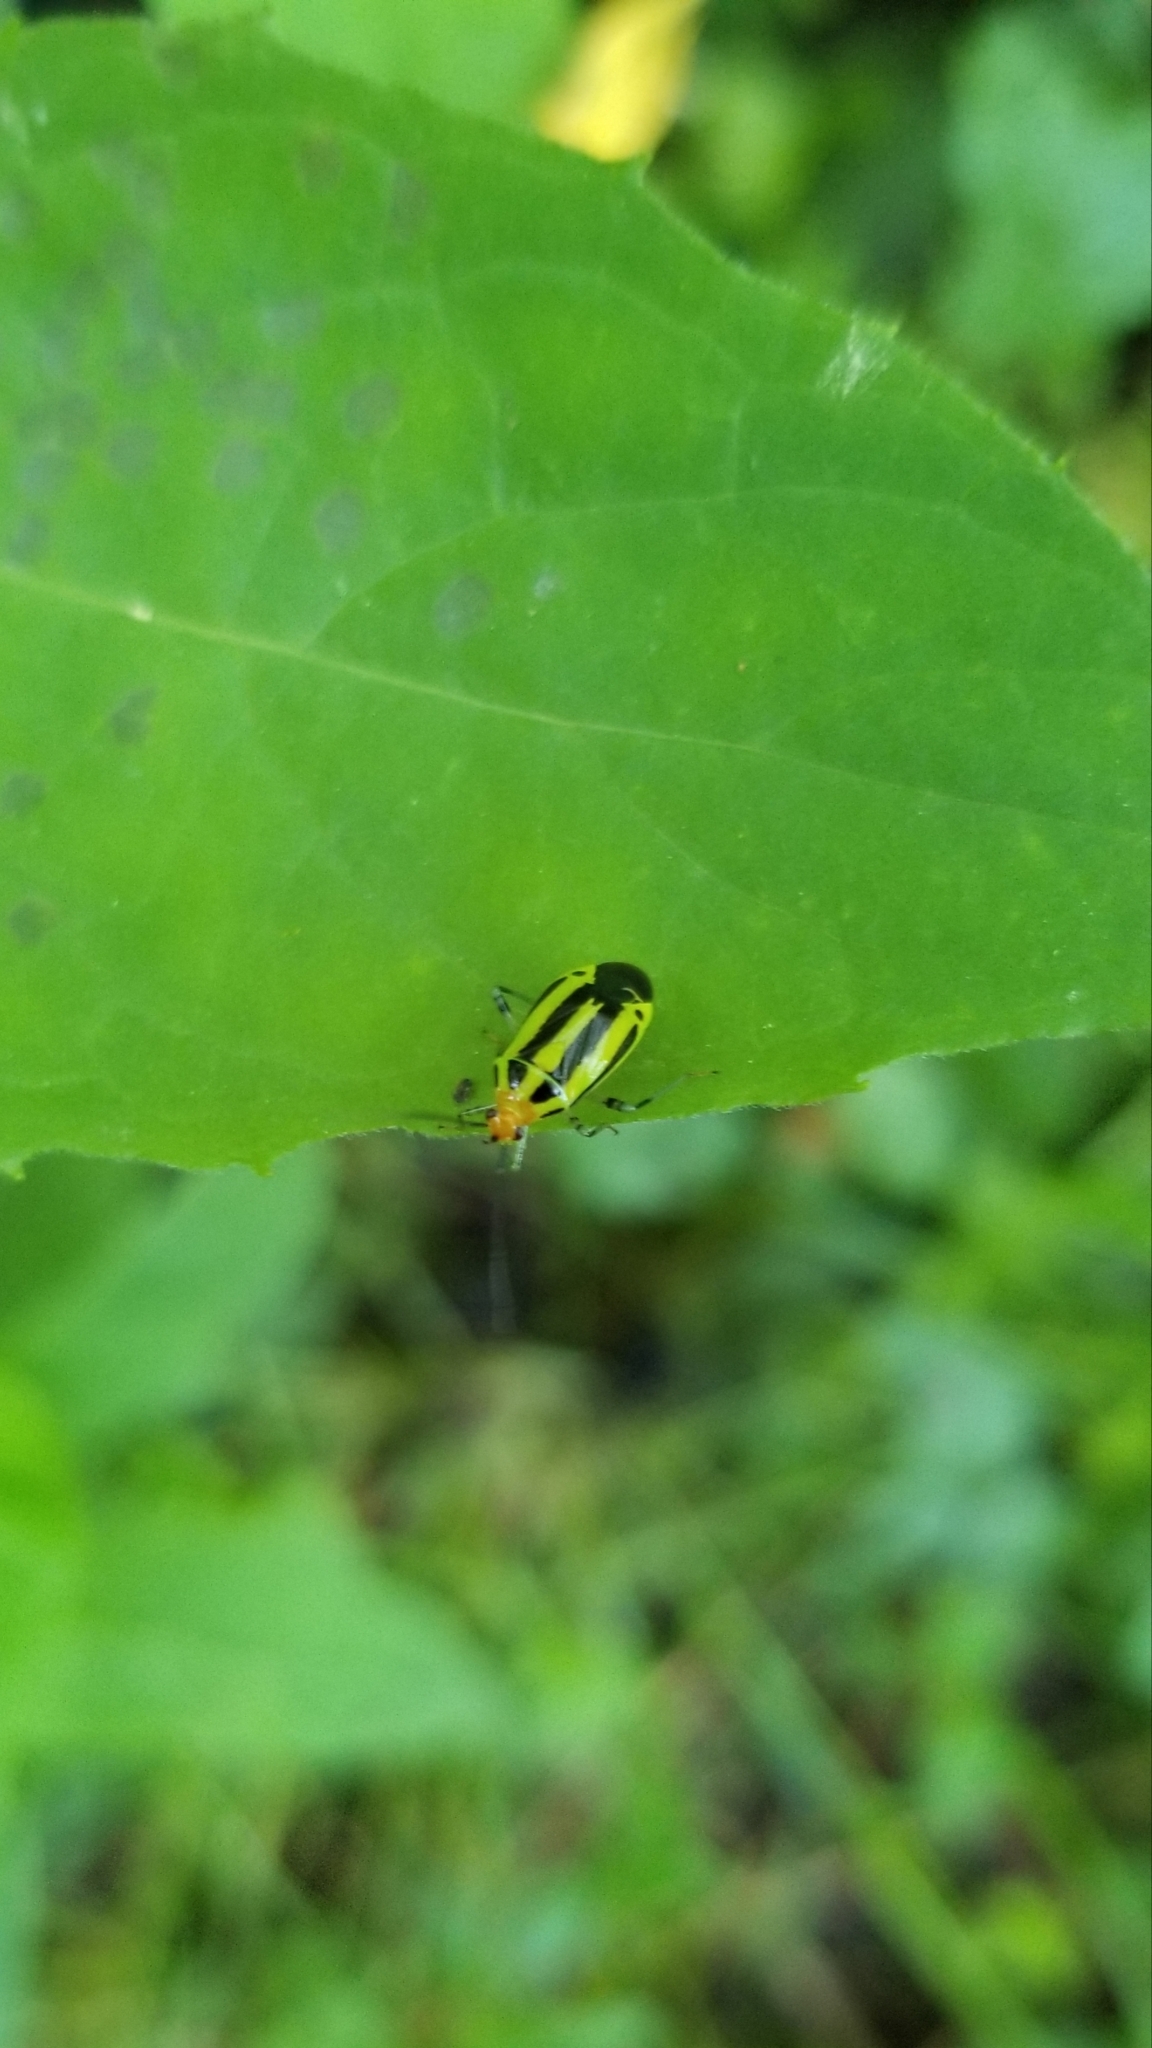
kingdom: Animalia
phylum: Arthropoda
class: Insecta
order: Hemiptera
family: Miridae
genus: Poecilocapsus
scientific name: Poecilocapsus lineatus
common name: Four-lined plant bug
